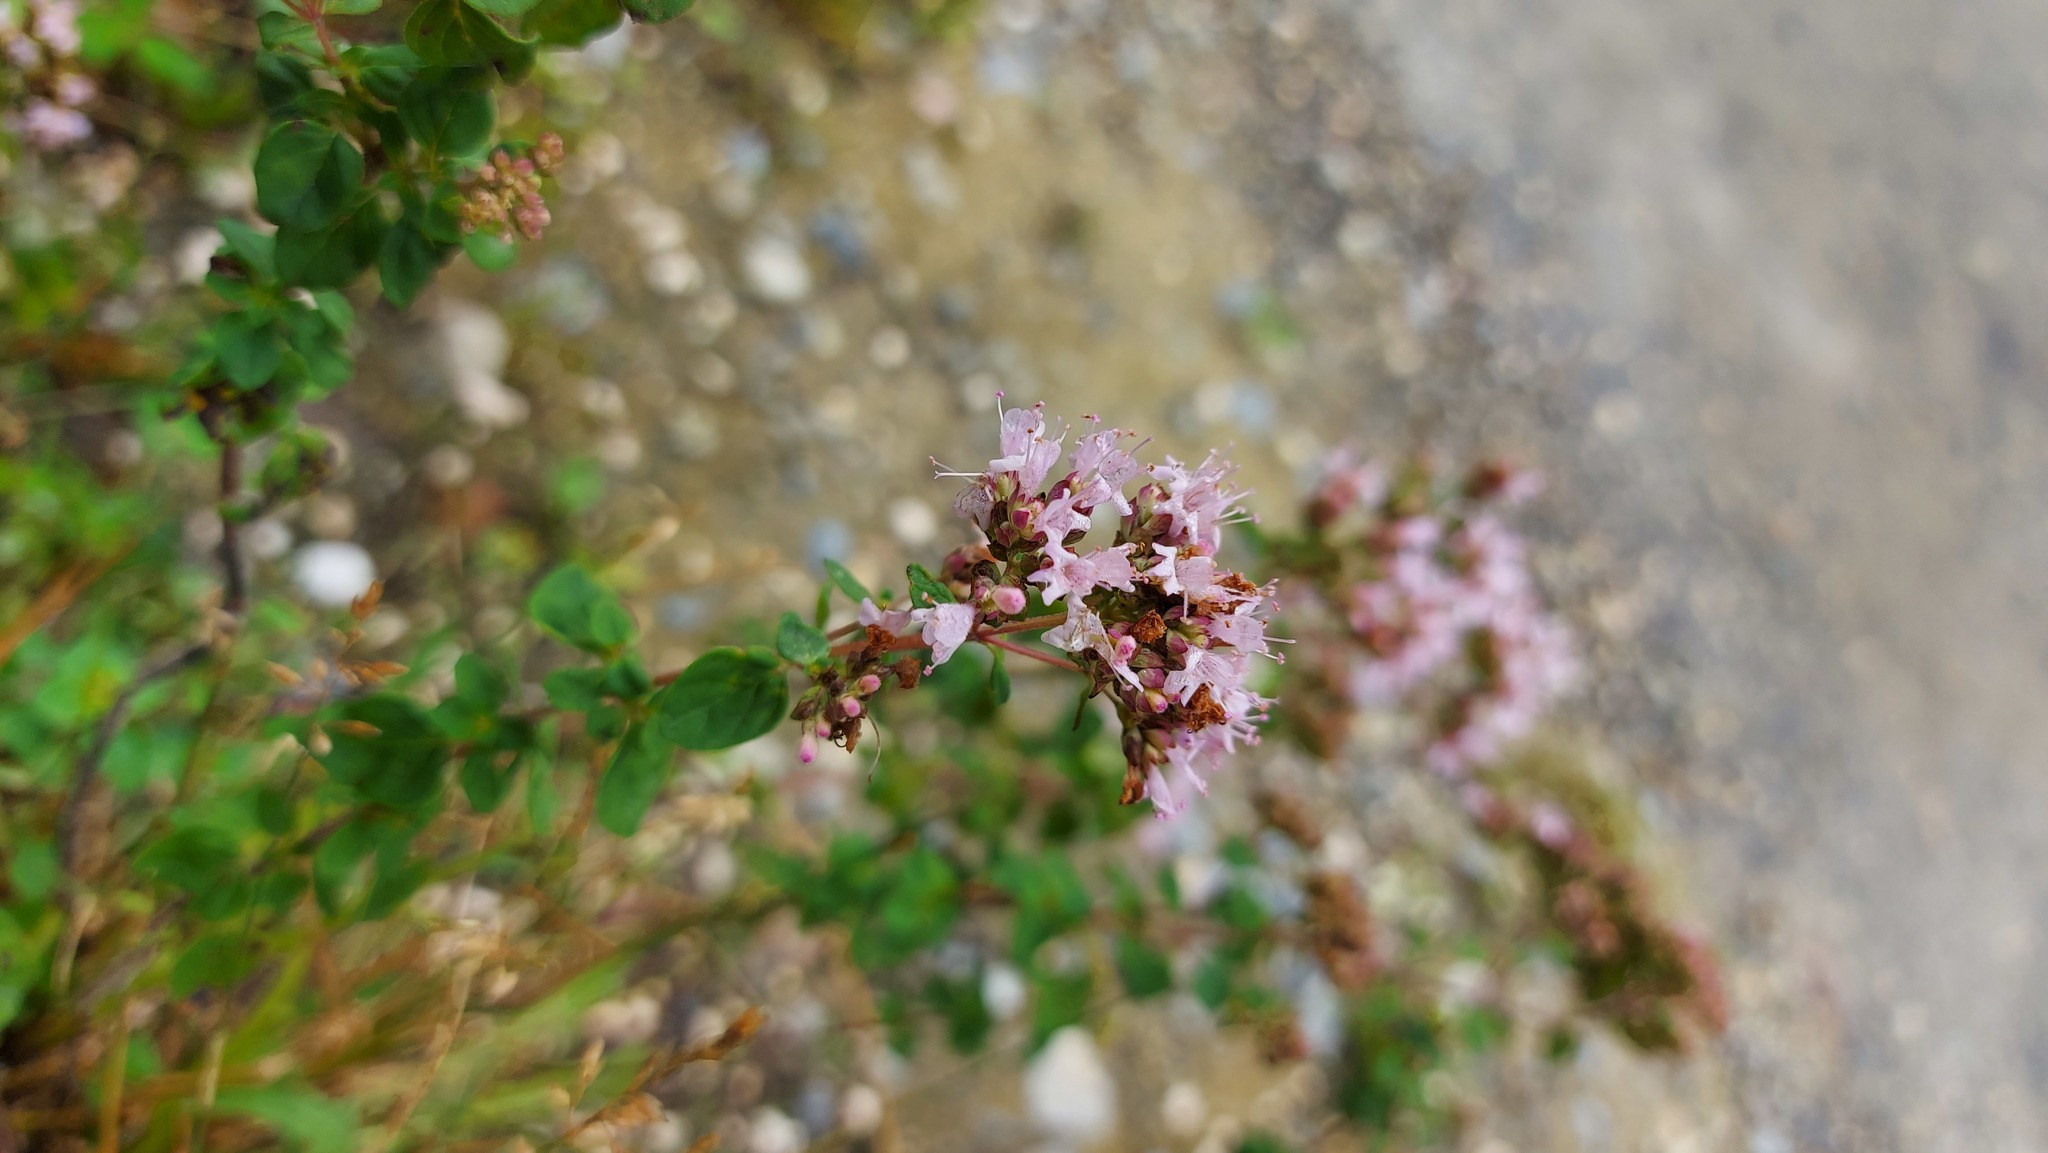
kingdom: Plantae
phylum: Tracheophyta
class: Magnoliopsida
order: Lamiales
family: Lamiaceae
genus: Origanum
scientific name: Origanum vulgare
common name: Wild marjoram
